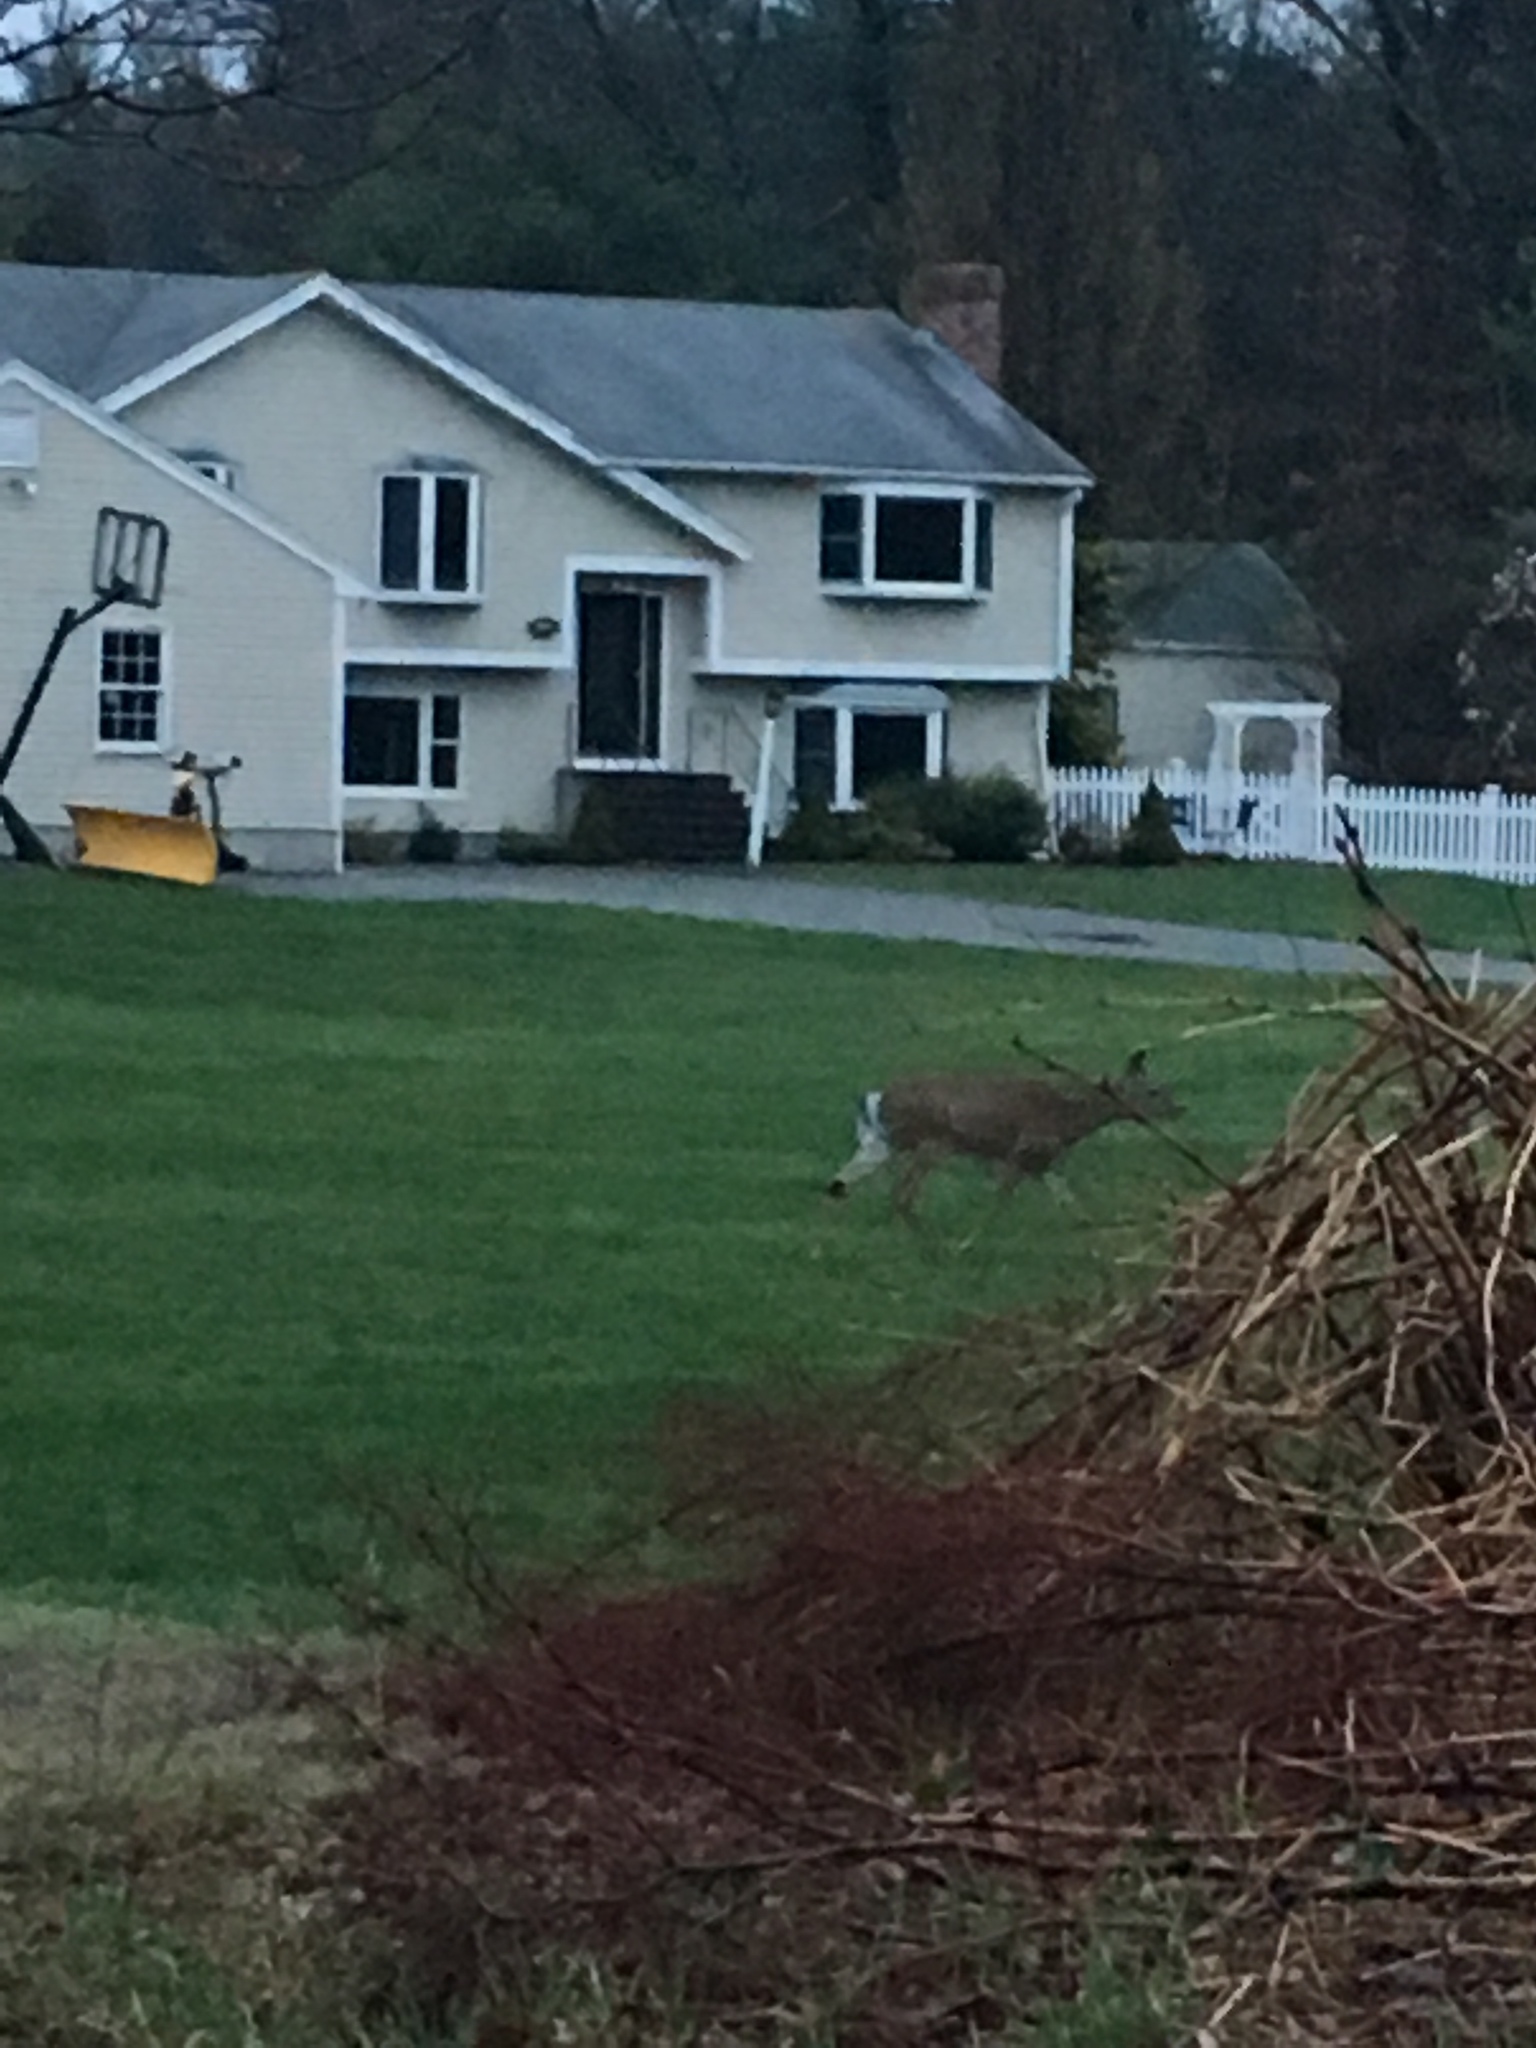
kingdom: Animalia
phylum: Chordata
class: Mammalia
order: Artiodactyla
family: Cervidae
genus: Odocoileus
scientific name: Odocoileus virginianus
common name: White-tailed deer
